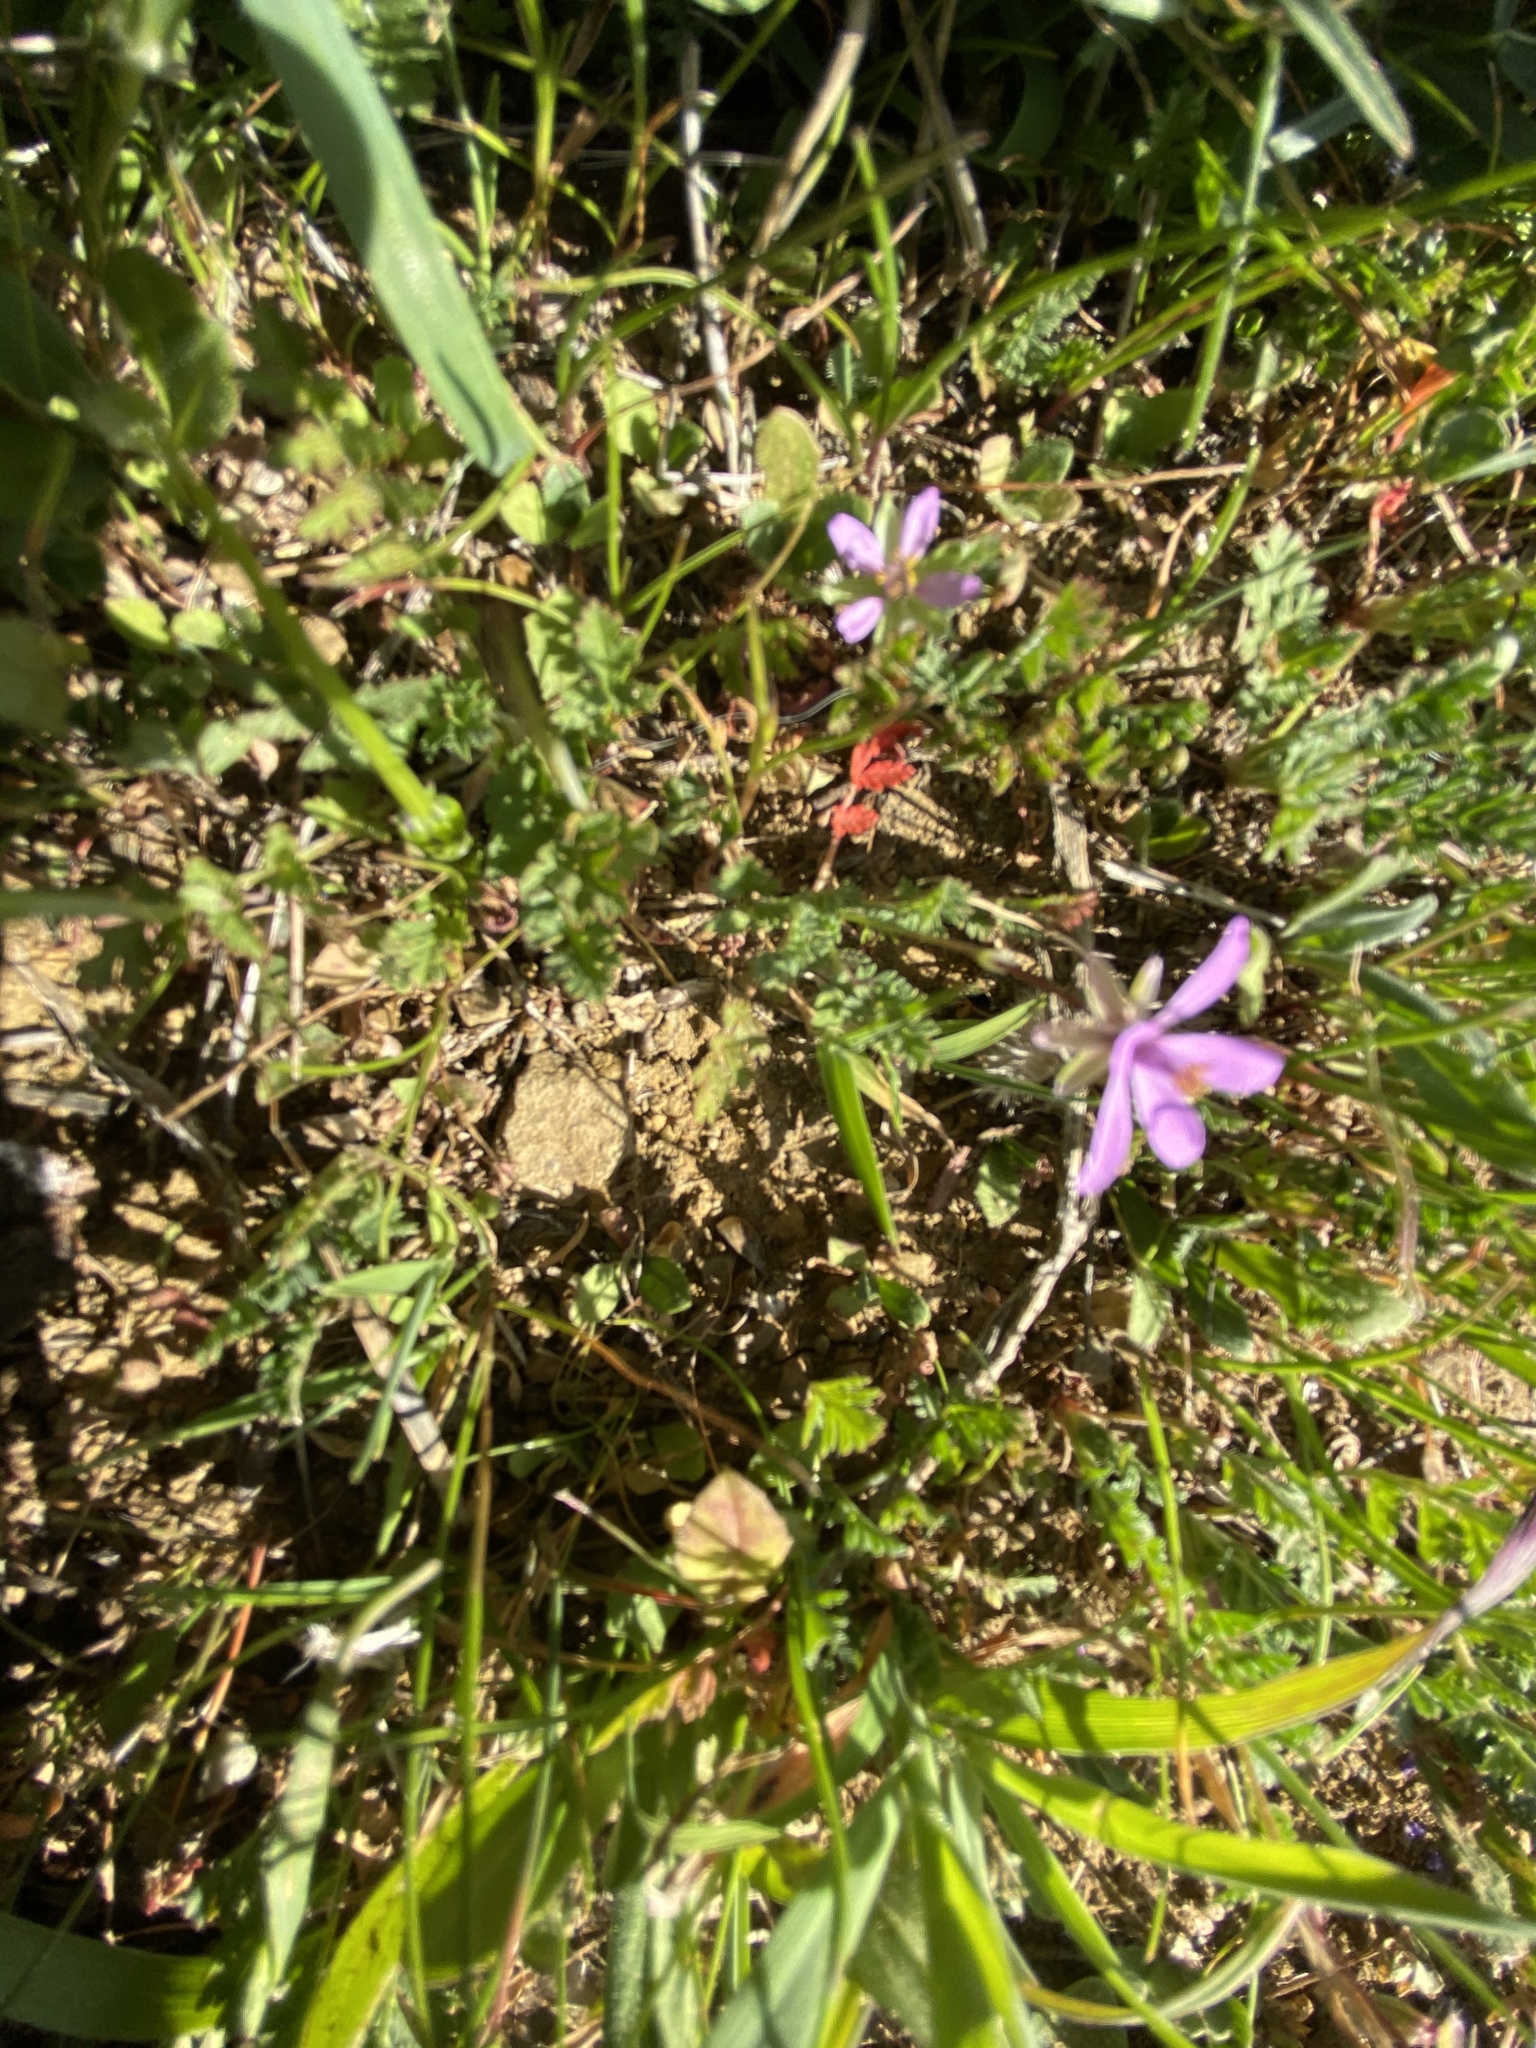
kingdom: Plantae
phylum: Tracheophyta
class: Magnoliopsida
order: Geraniales
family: Geraniaceae
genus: Erodium
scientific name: Erodium cicutarium
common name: Common stork's-bill
